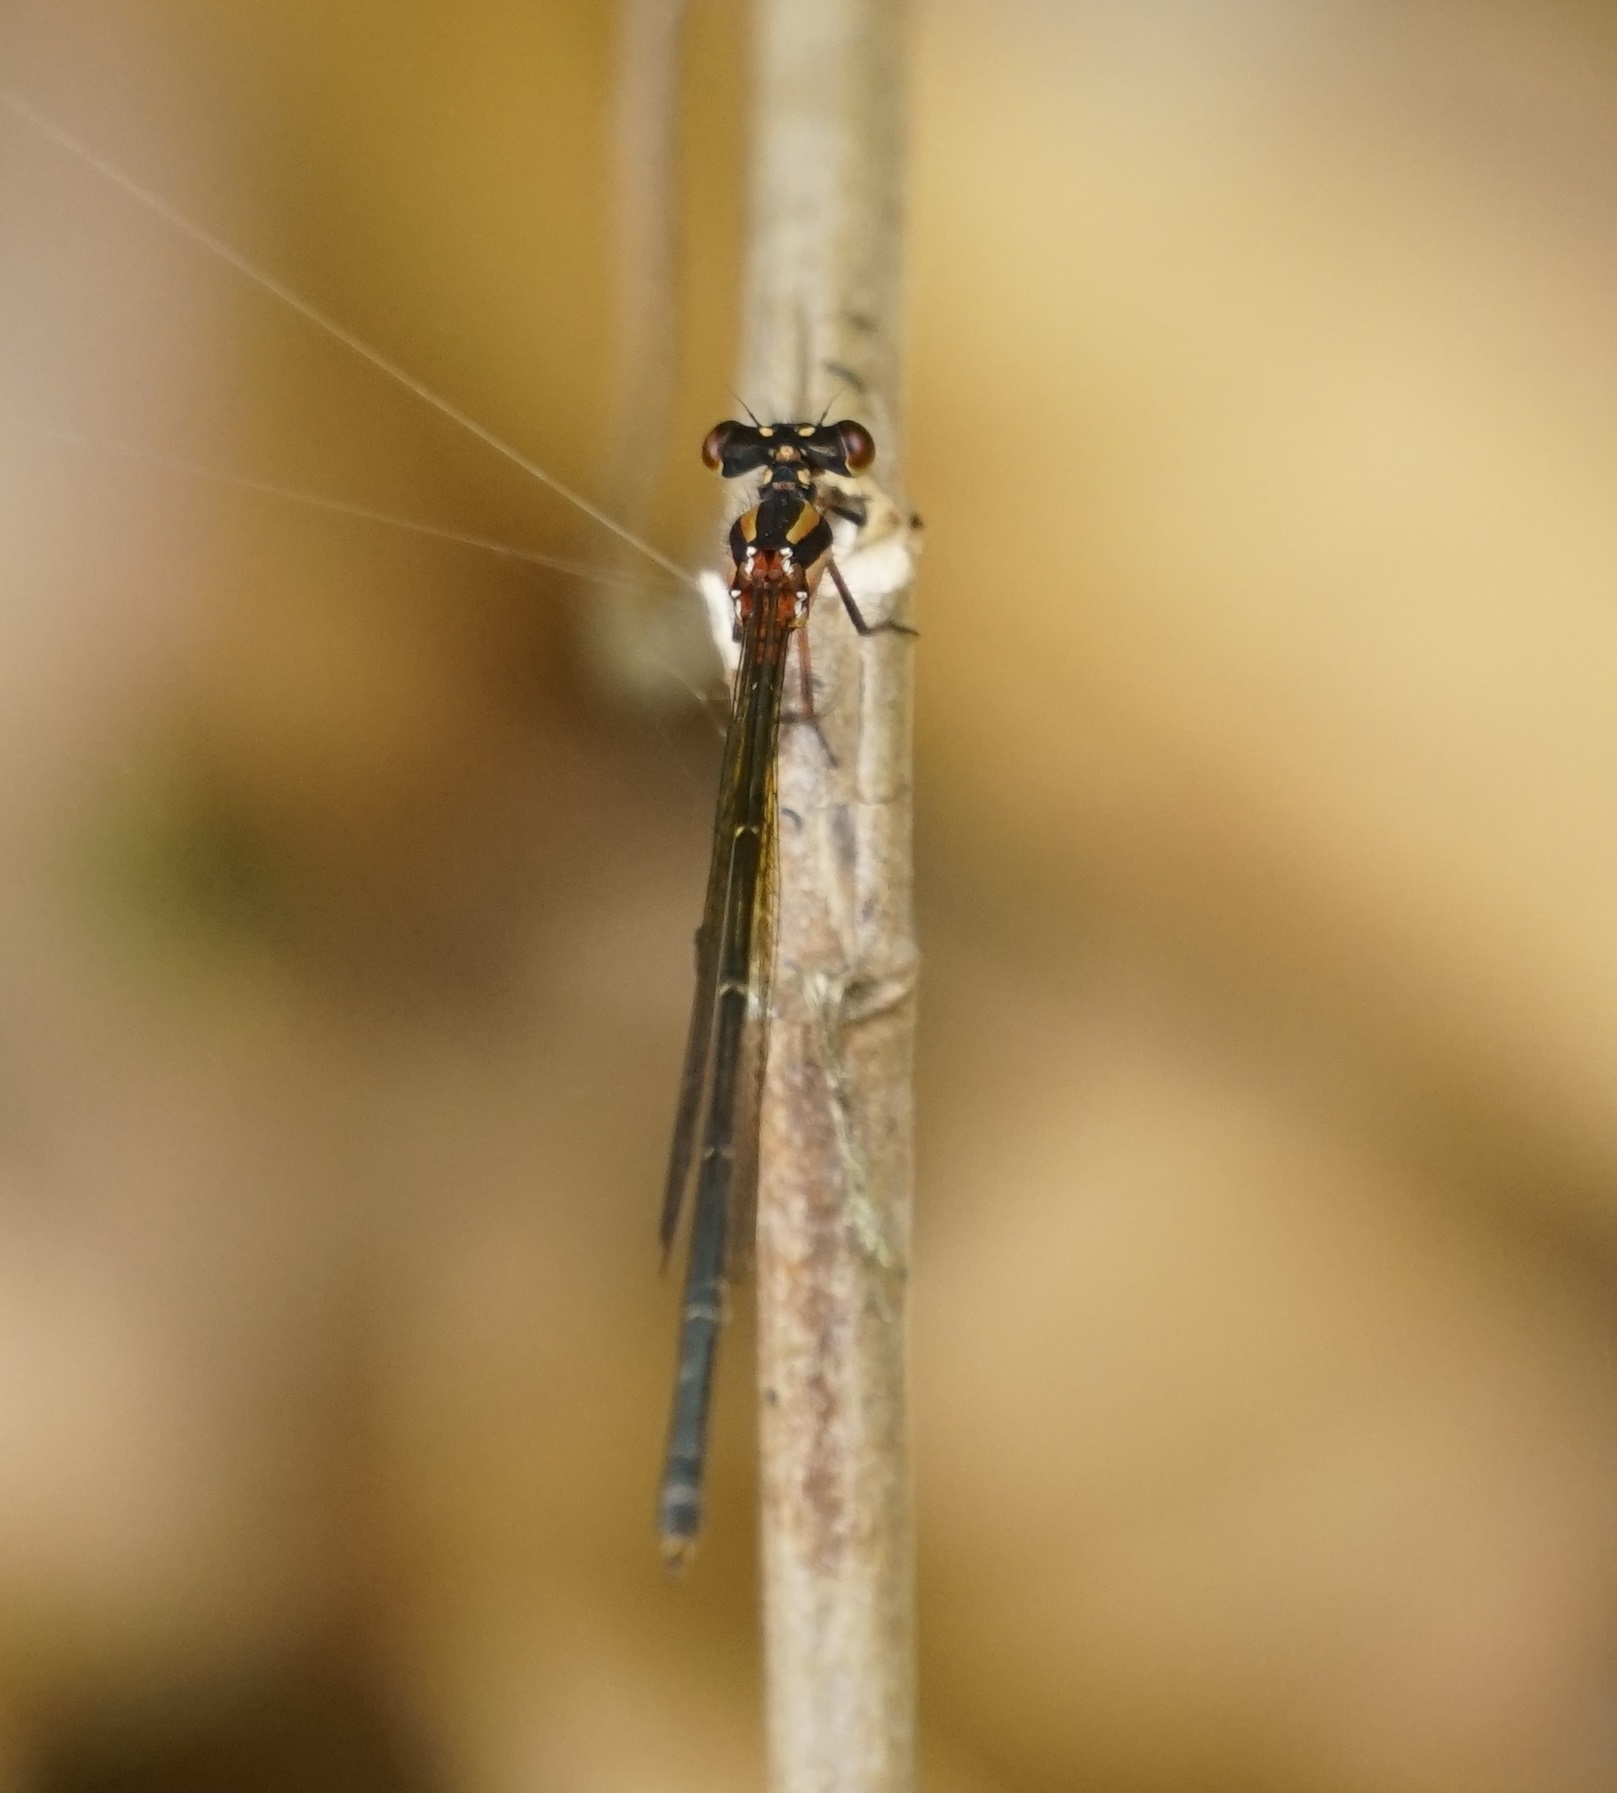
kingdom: Animalia
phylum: Arthropoda
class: Insecta
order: Odonata
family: Platycnemididae
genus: Nososticta
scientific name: Nososticta solida
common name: Orange threadtail
